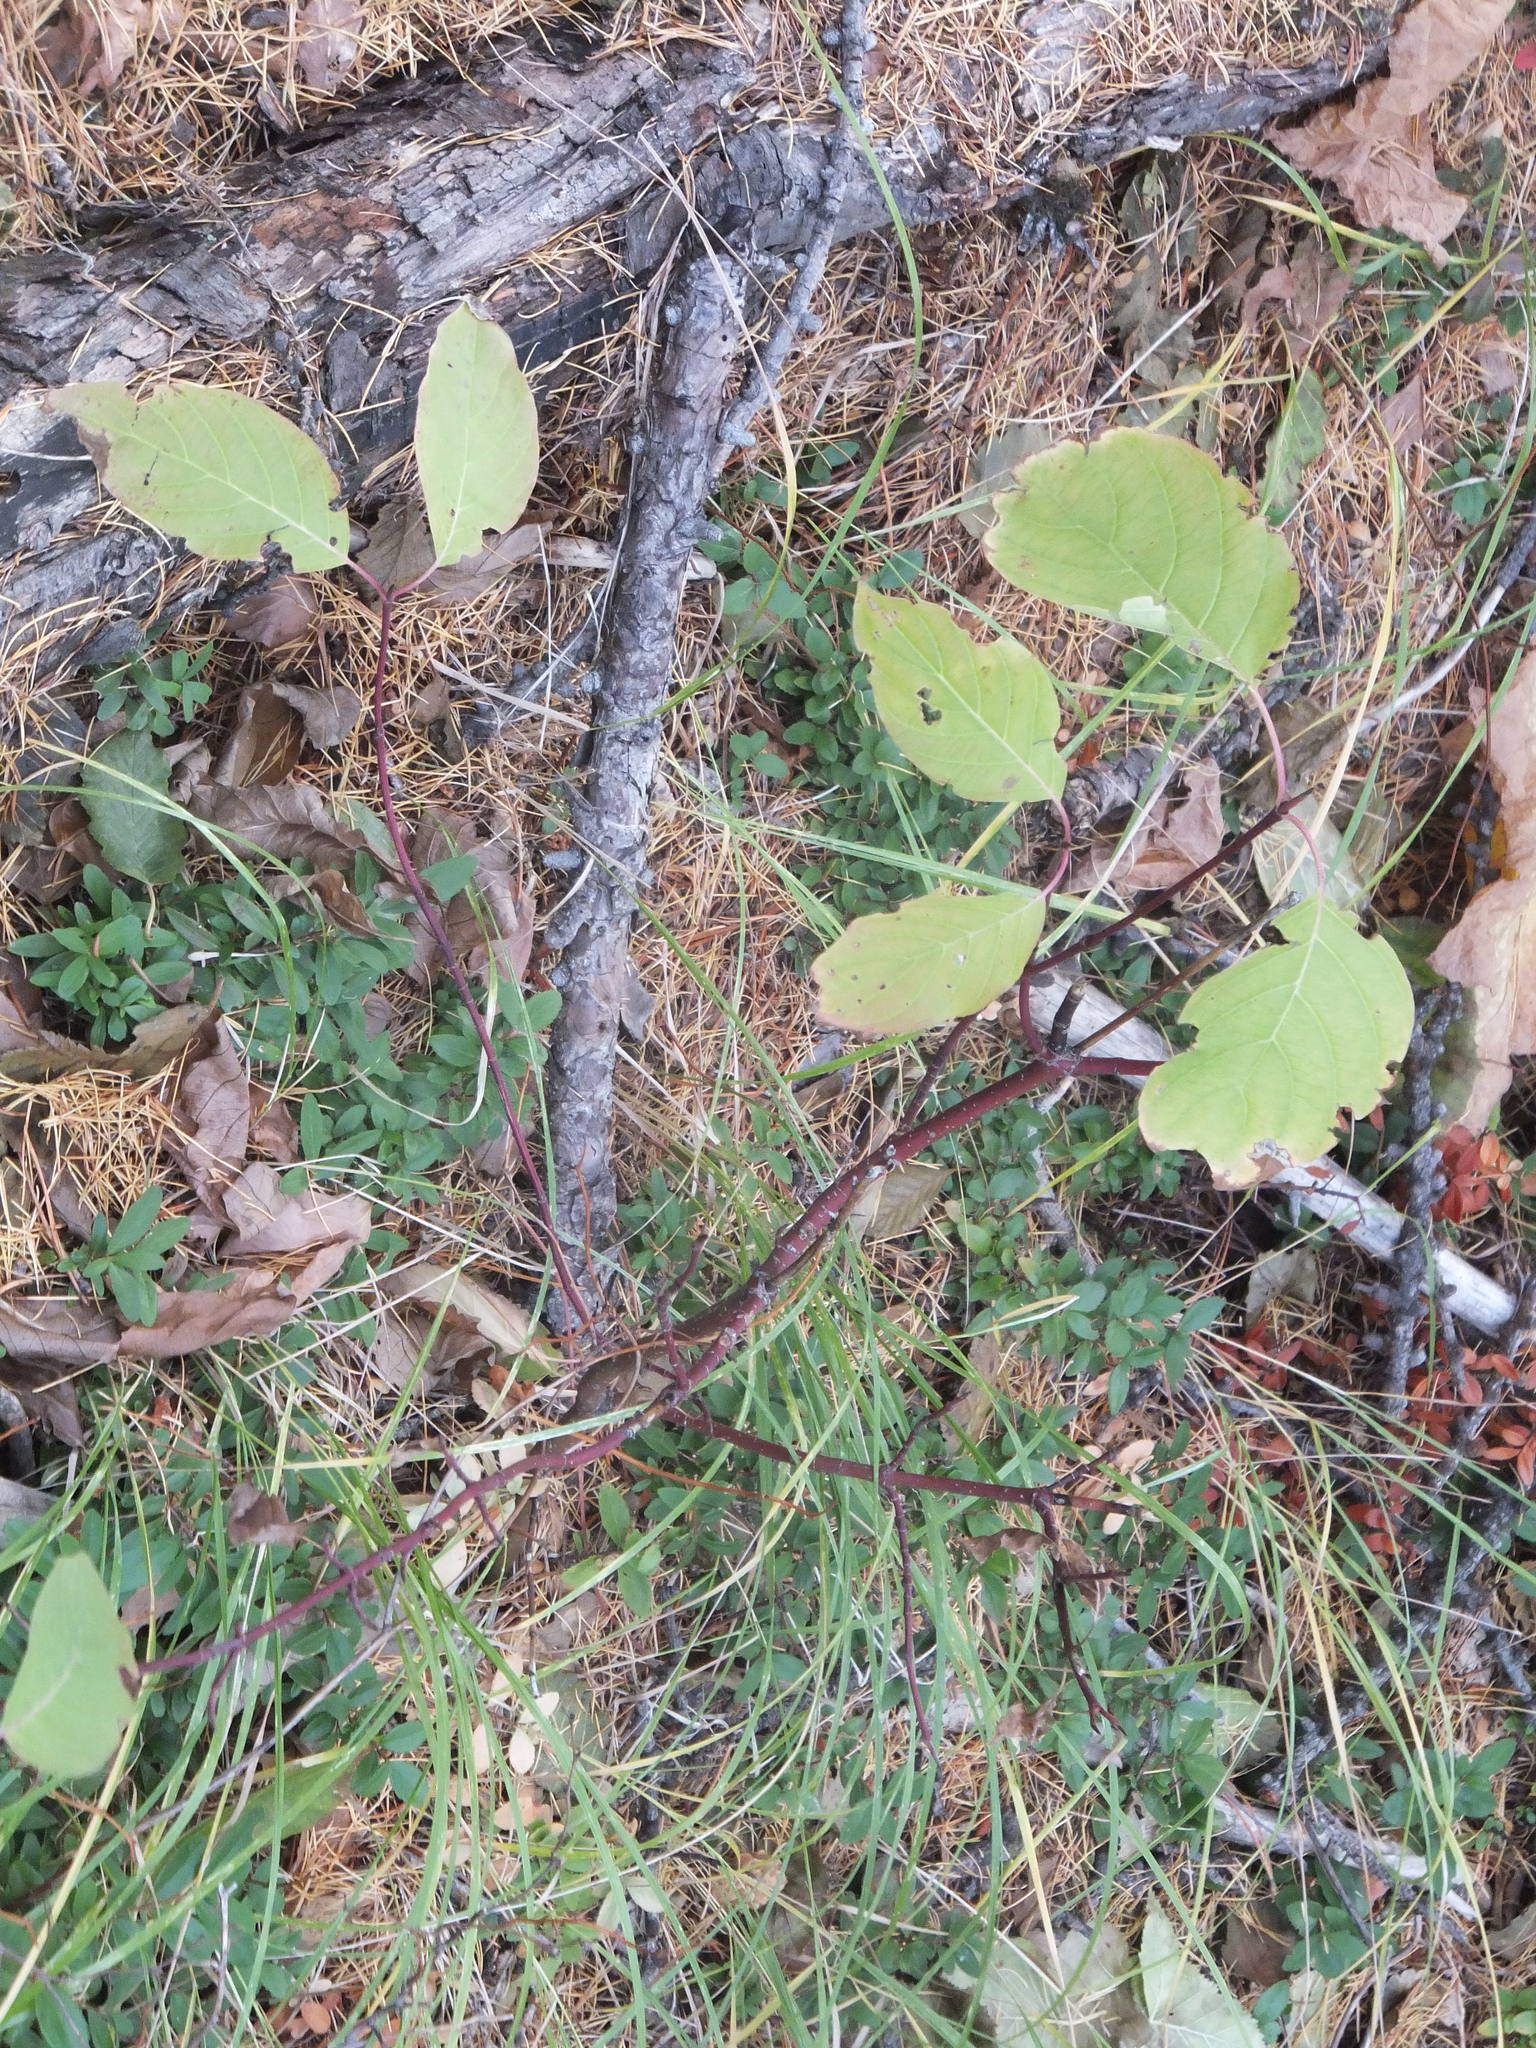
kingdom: Plantae
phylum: Tracheophyta
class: Magnoliopsida
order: Cornales
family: Cornaceae
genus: Cornus
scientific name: Cornus sericea
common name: Red-osier dogwood
